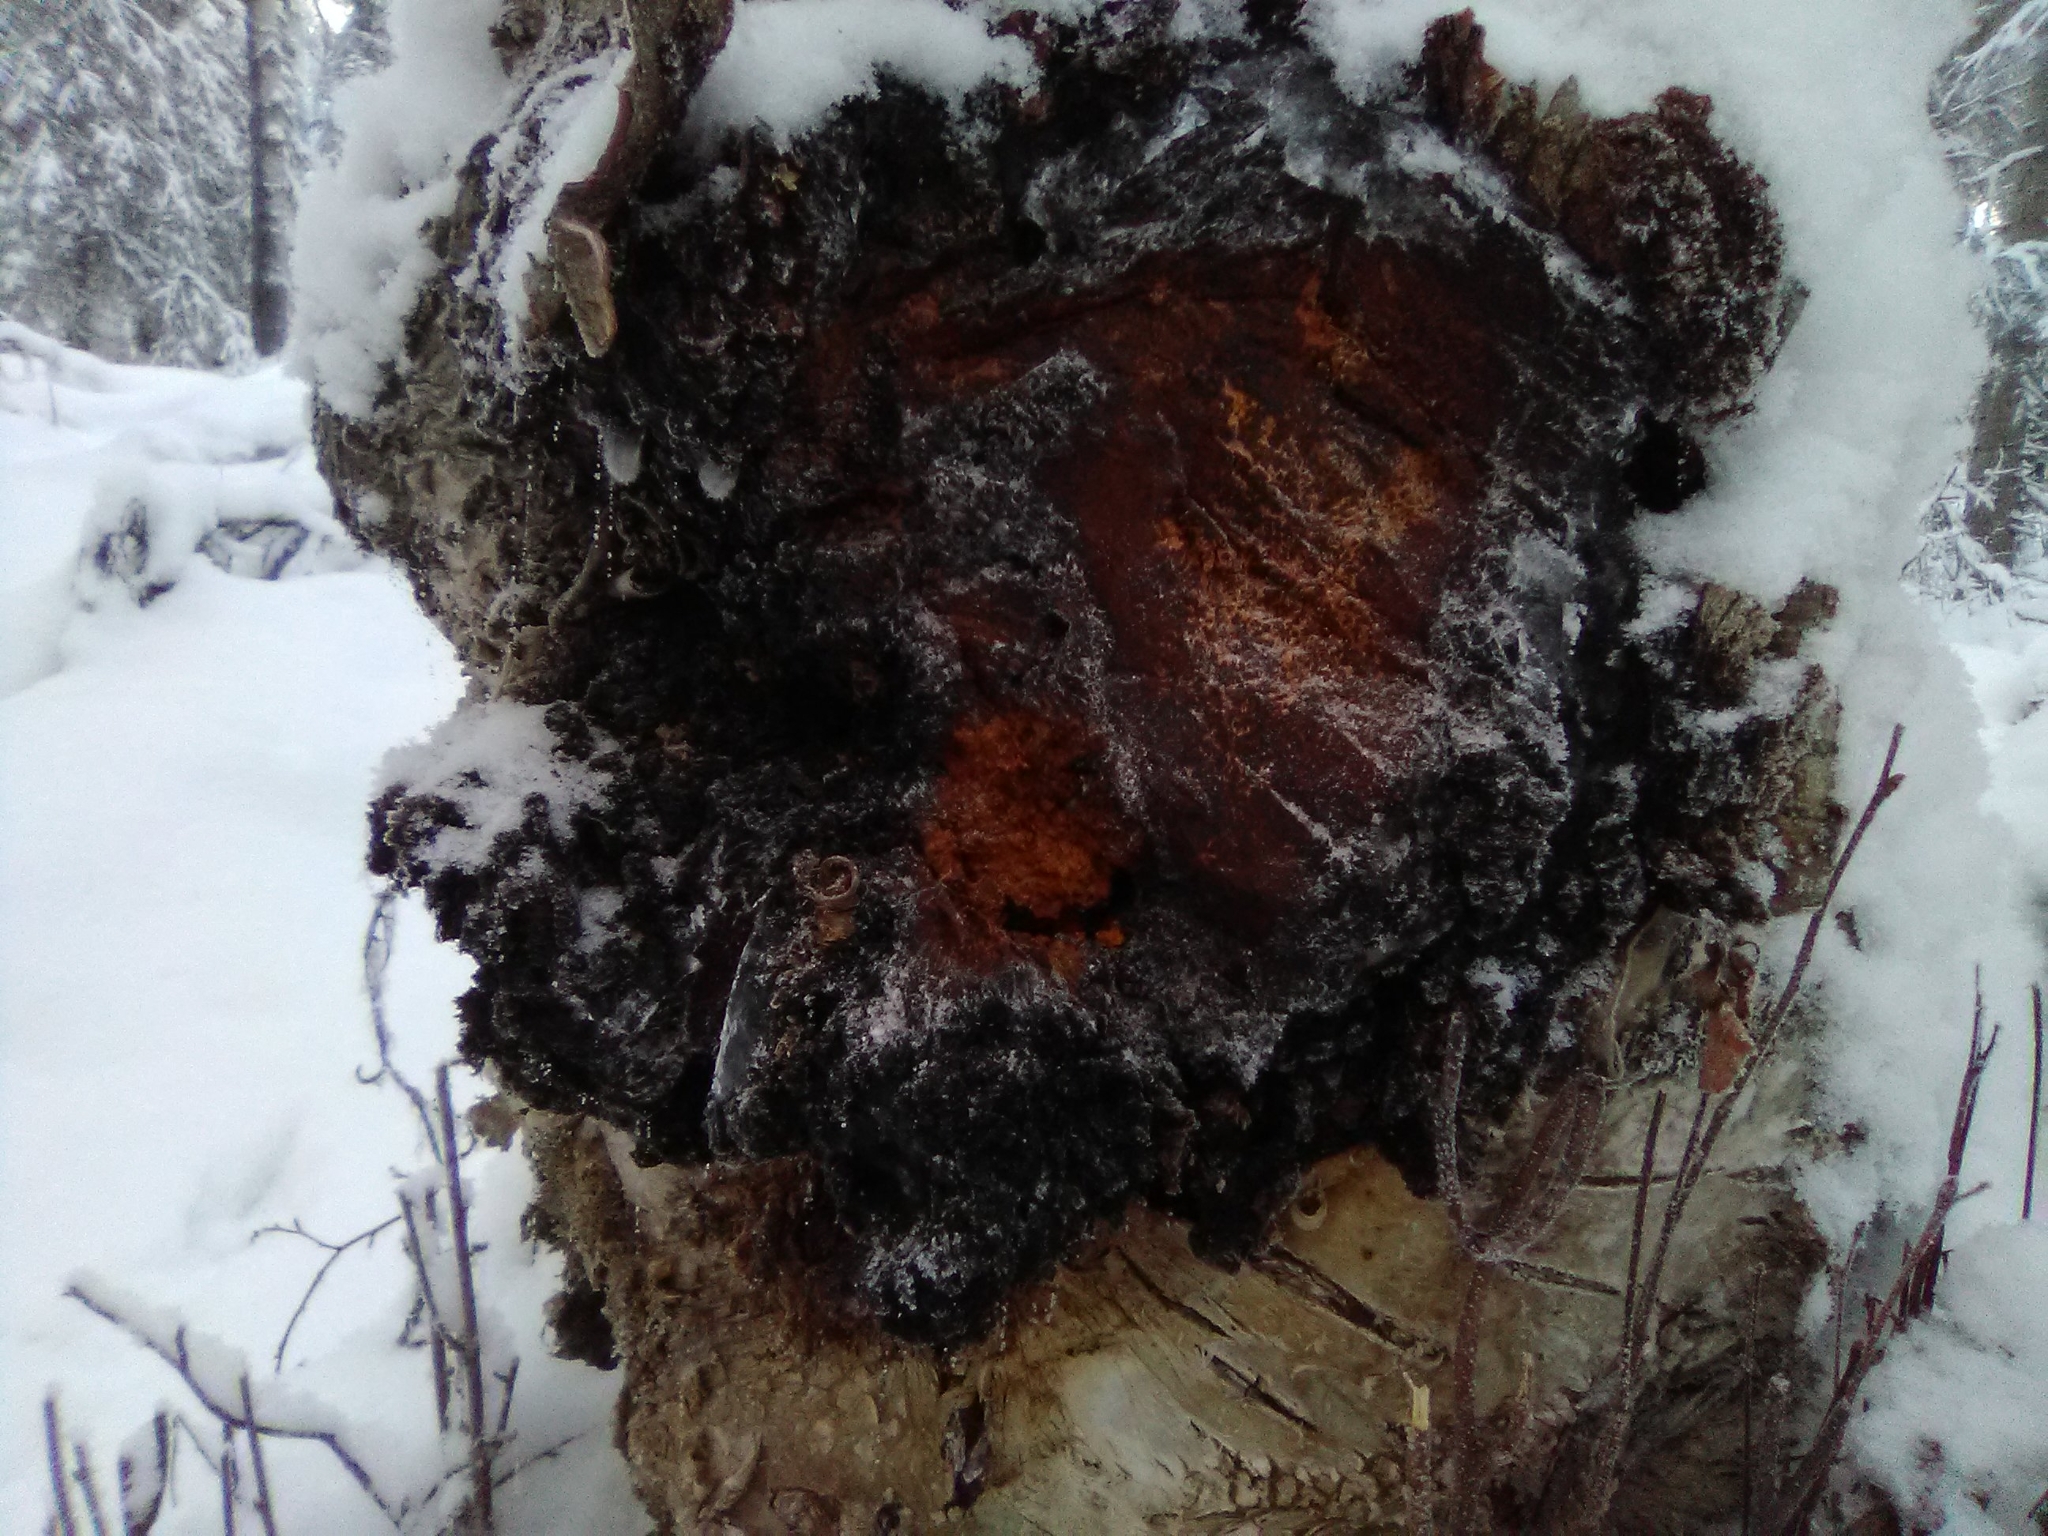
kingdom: Fungi
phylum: Basidiomycota
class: Agaricomycetes
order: Hymenochaetales
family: Hymenochaetaceae
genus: Inonotus
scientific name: Inonotus obliquus
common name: Chaga
